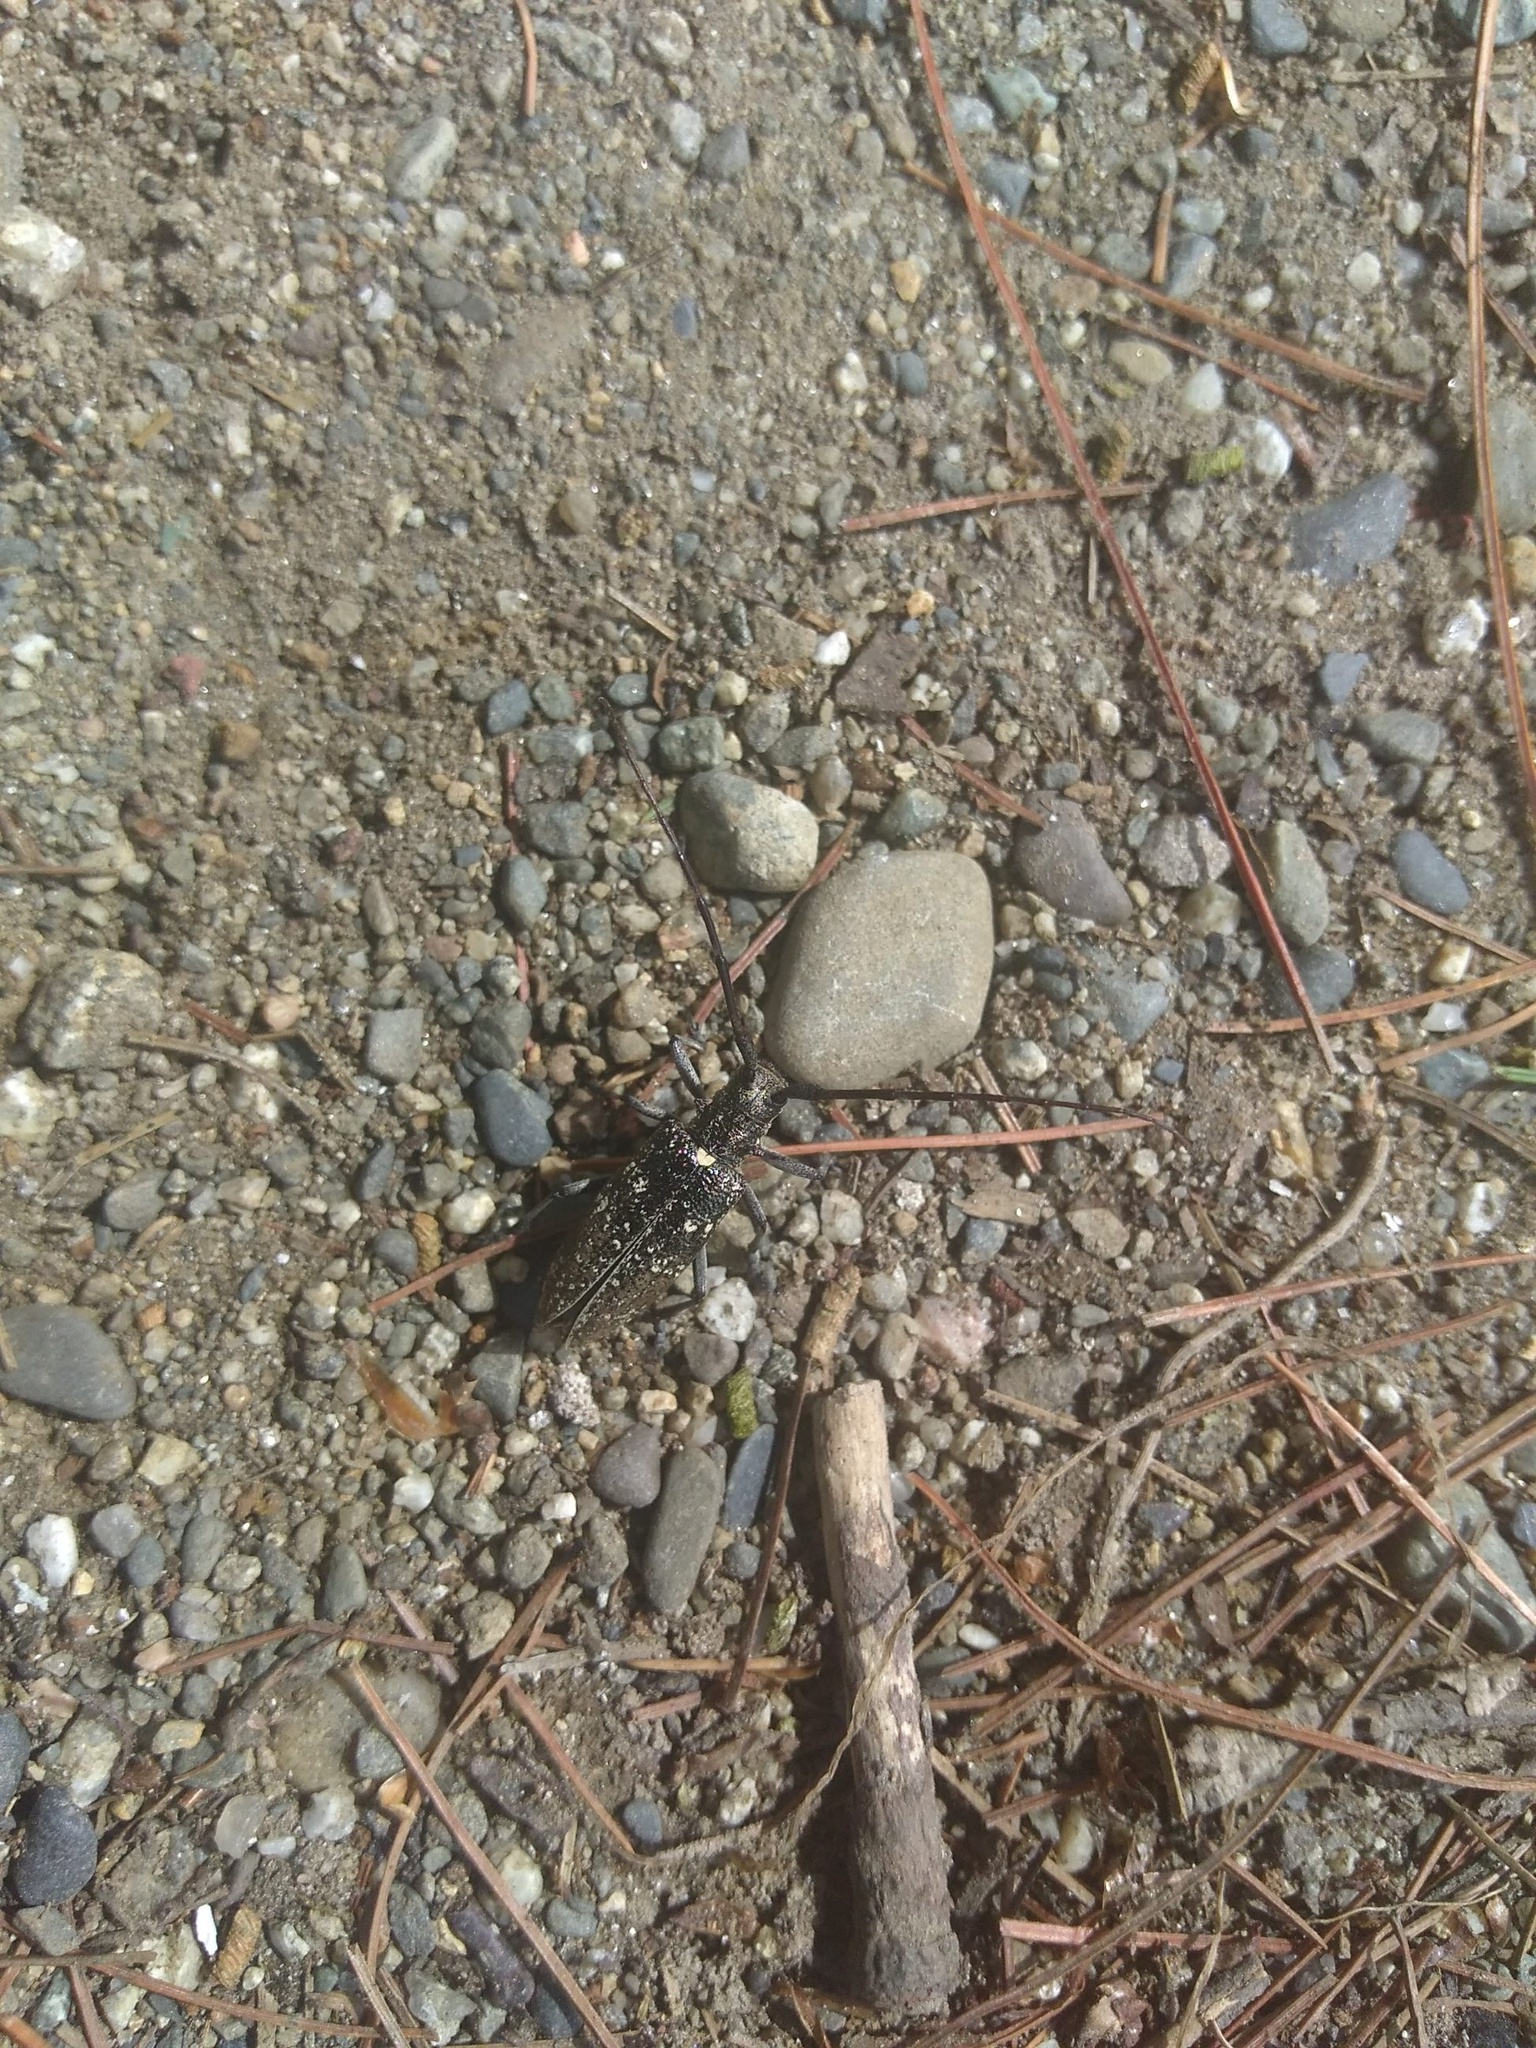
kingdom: Animalia
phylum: Arthropoda
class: Insecta
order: Coleoptera
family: Cerambycidae
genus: Monochamus
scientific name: Monochamus scutellatus
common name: White-spotted sawyer beetle
